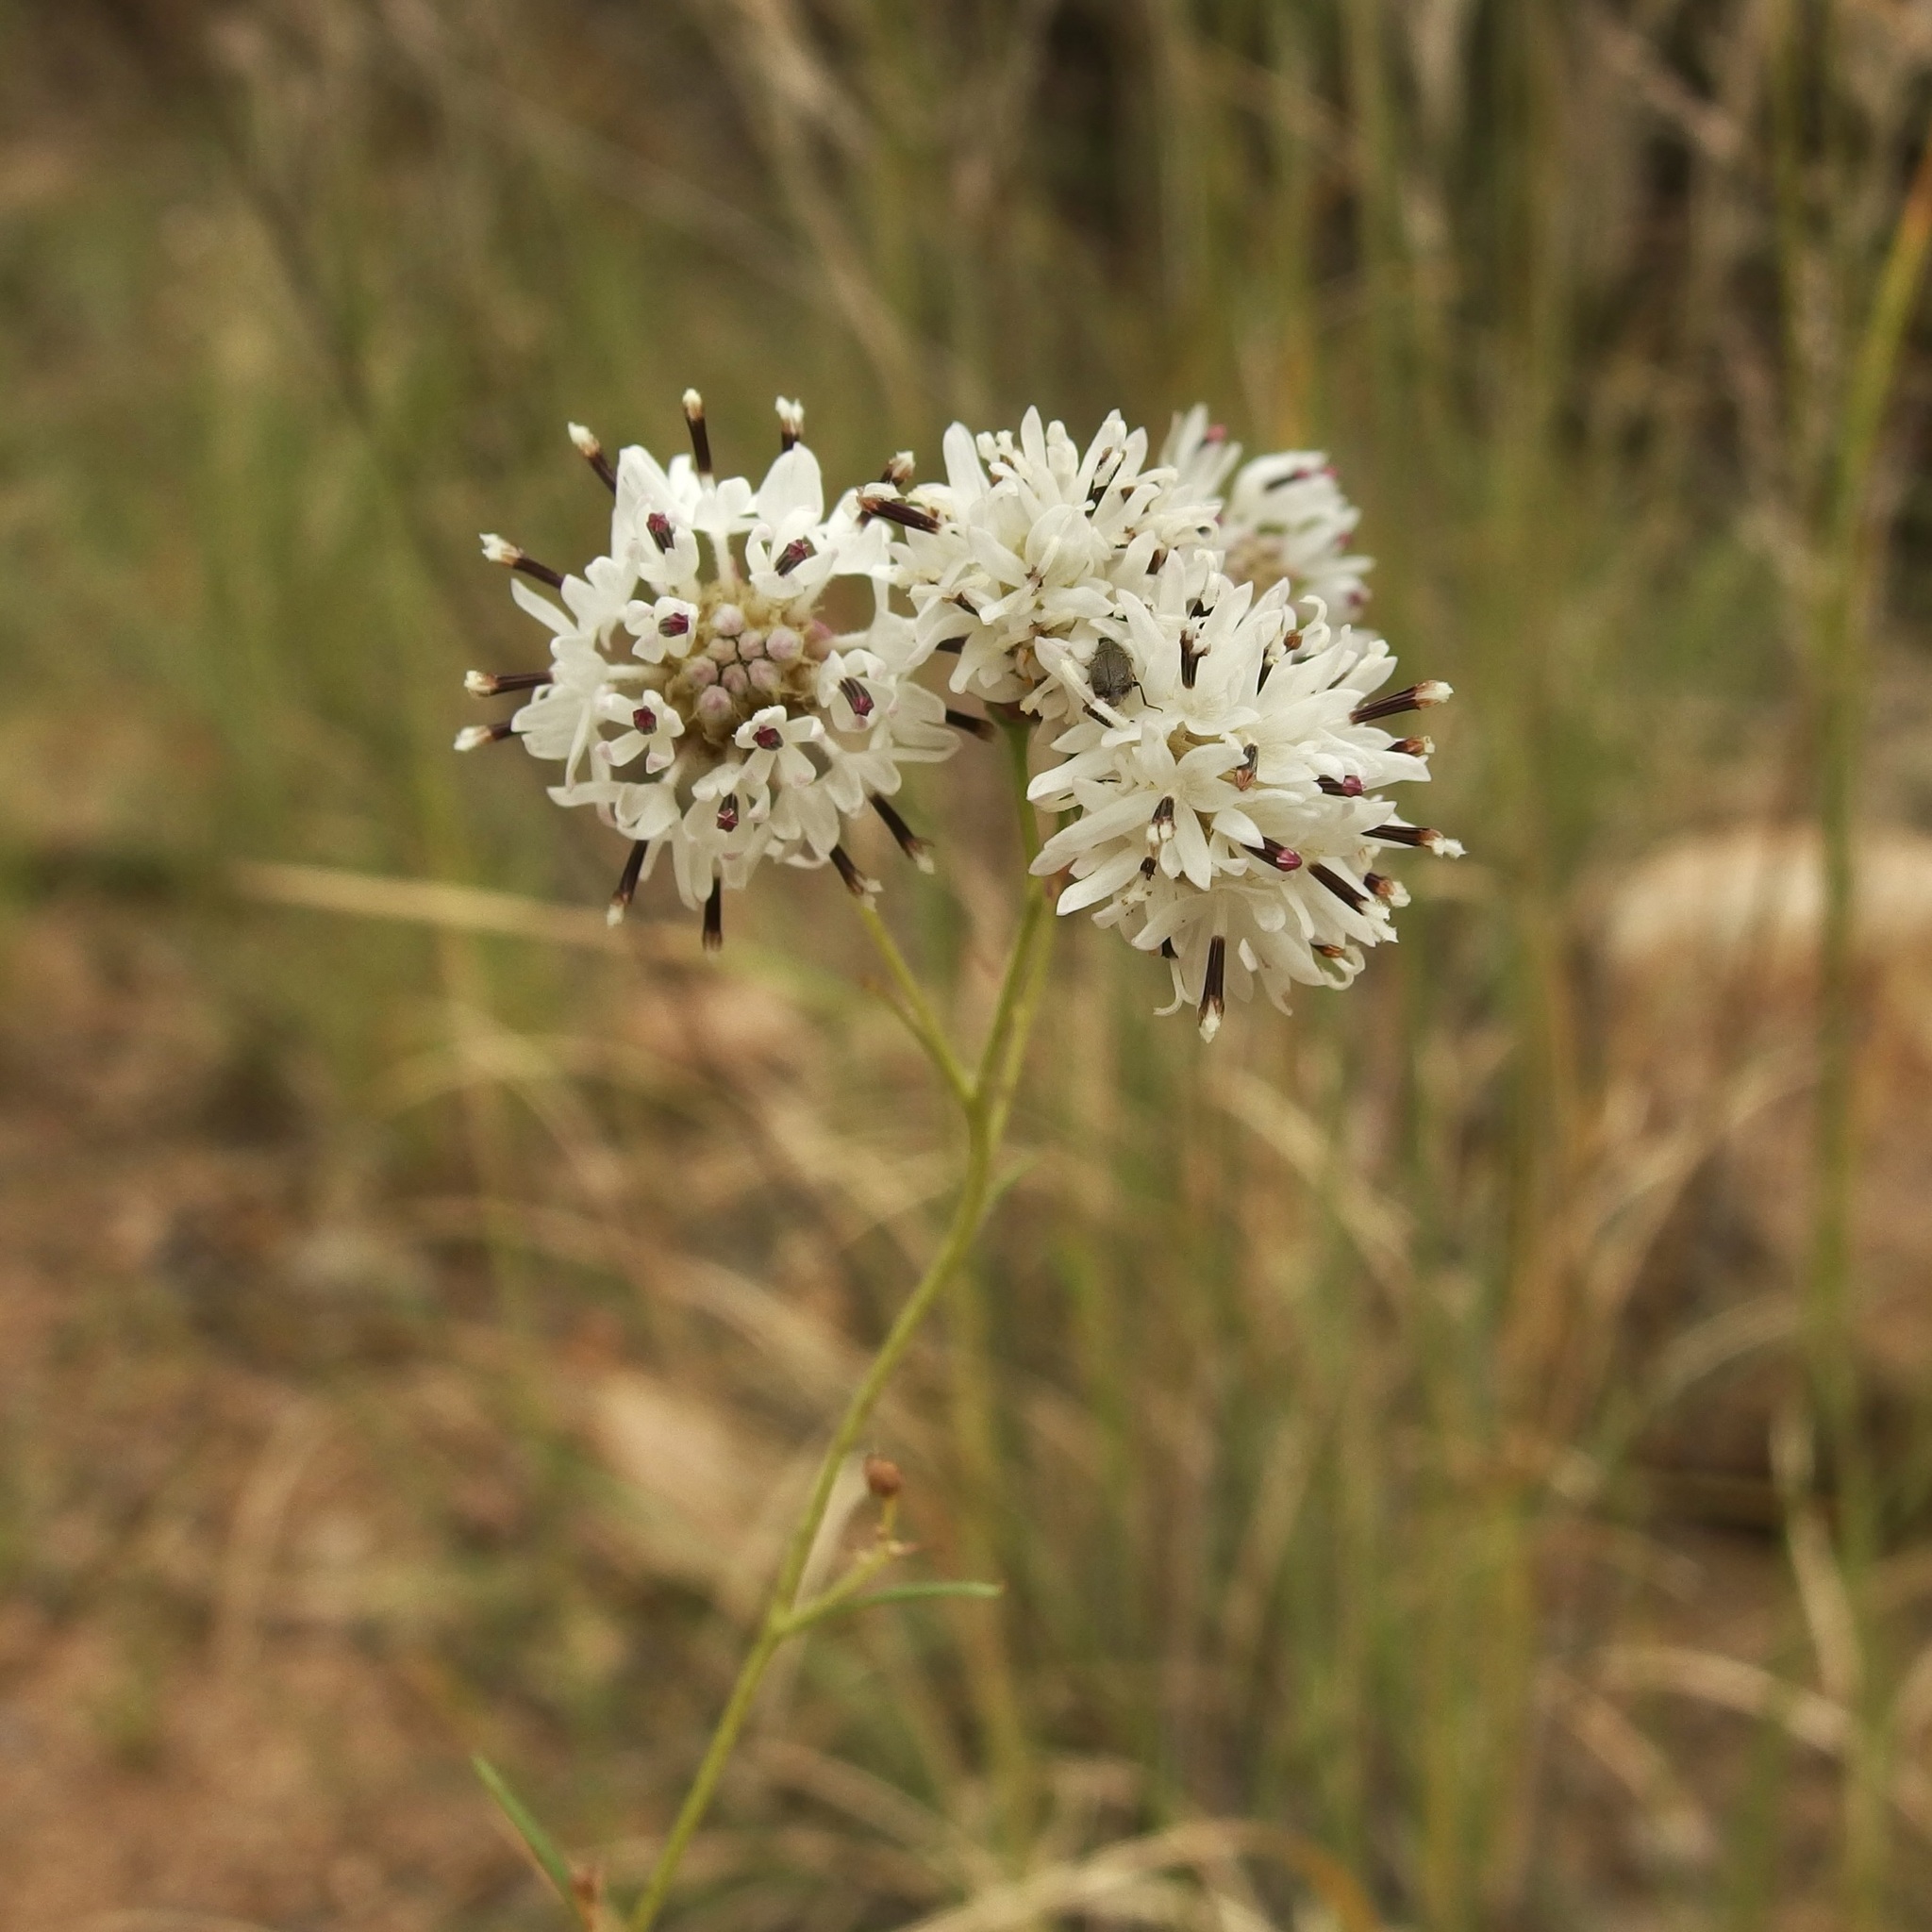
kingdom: Plantae
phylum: Tracheophyta
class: Magnoliopsida
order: Asterales
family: Asteraceae
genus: Hymenothrix
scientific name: Hymenothrix wrightii
